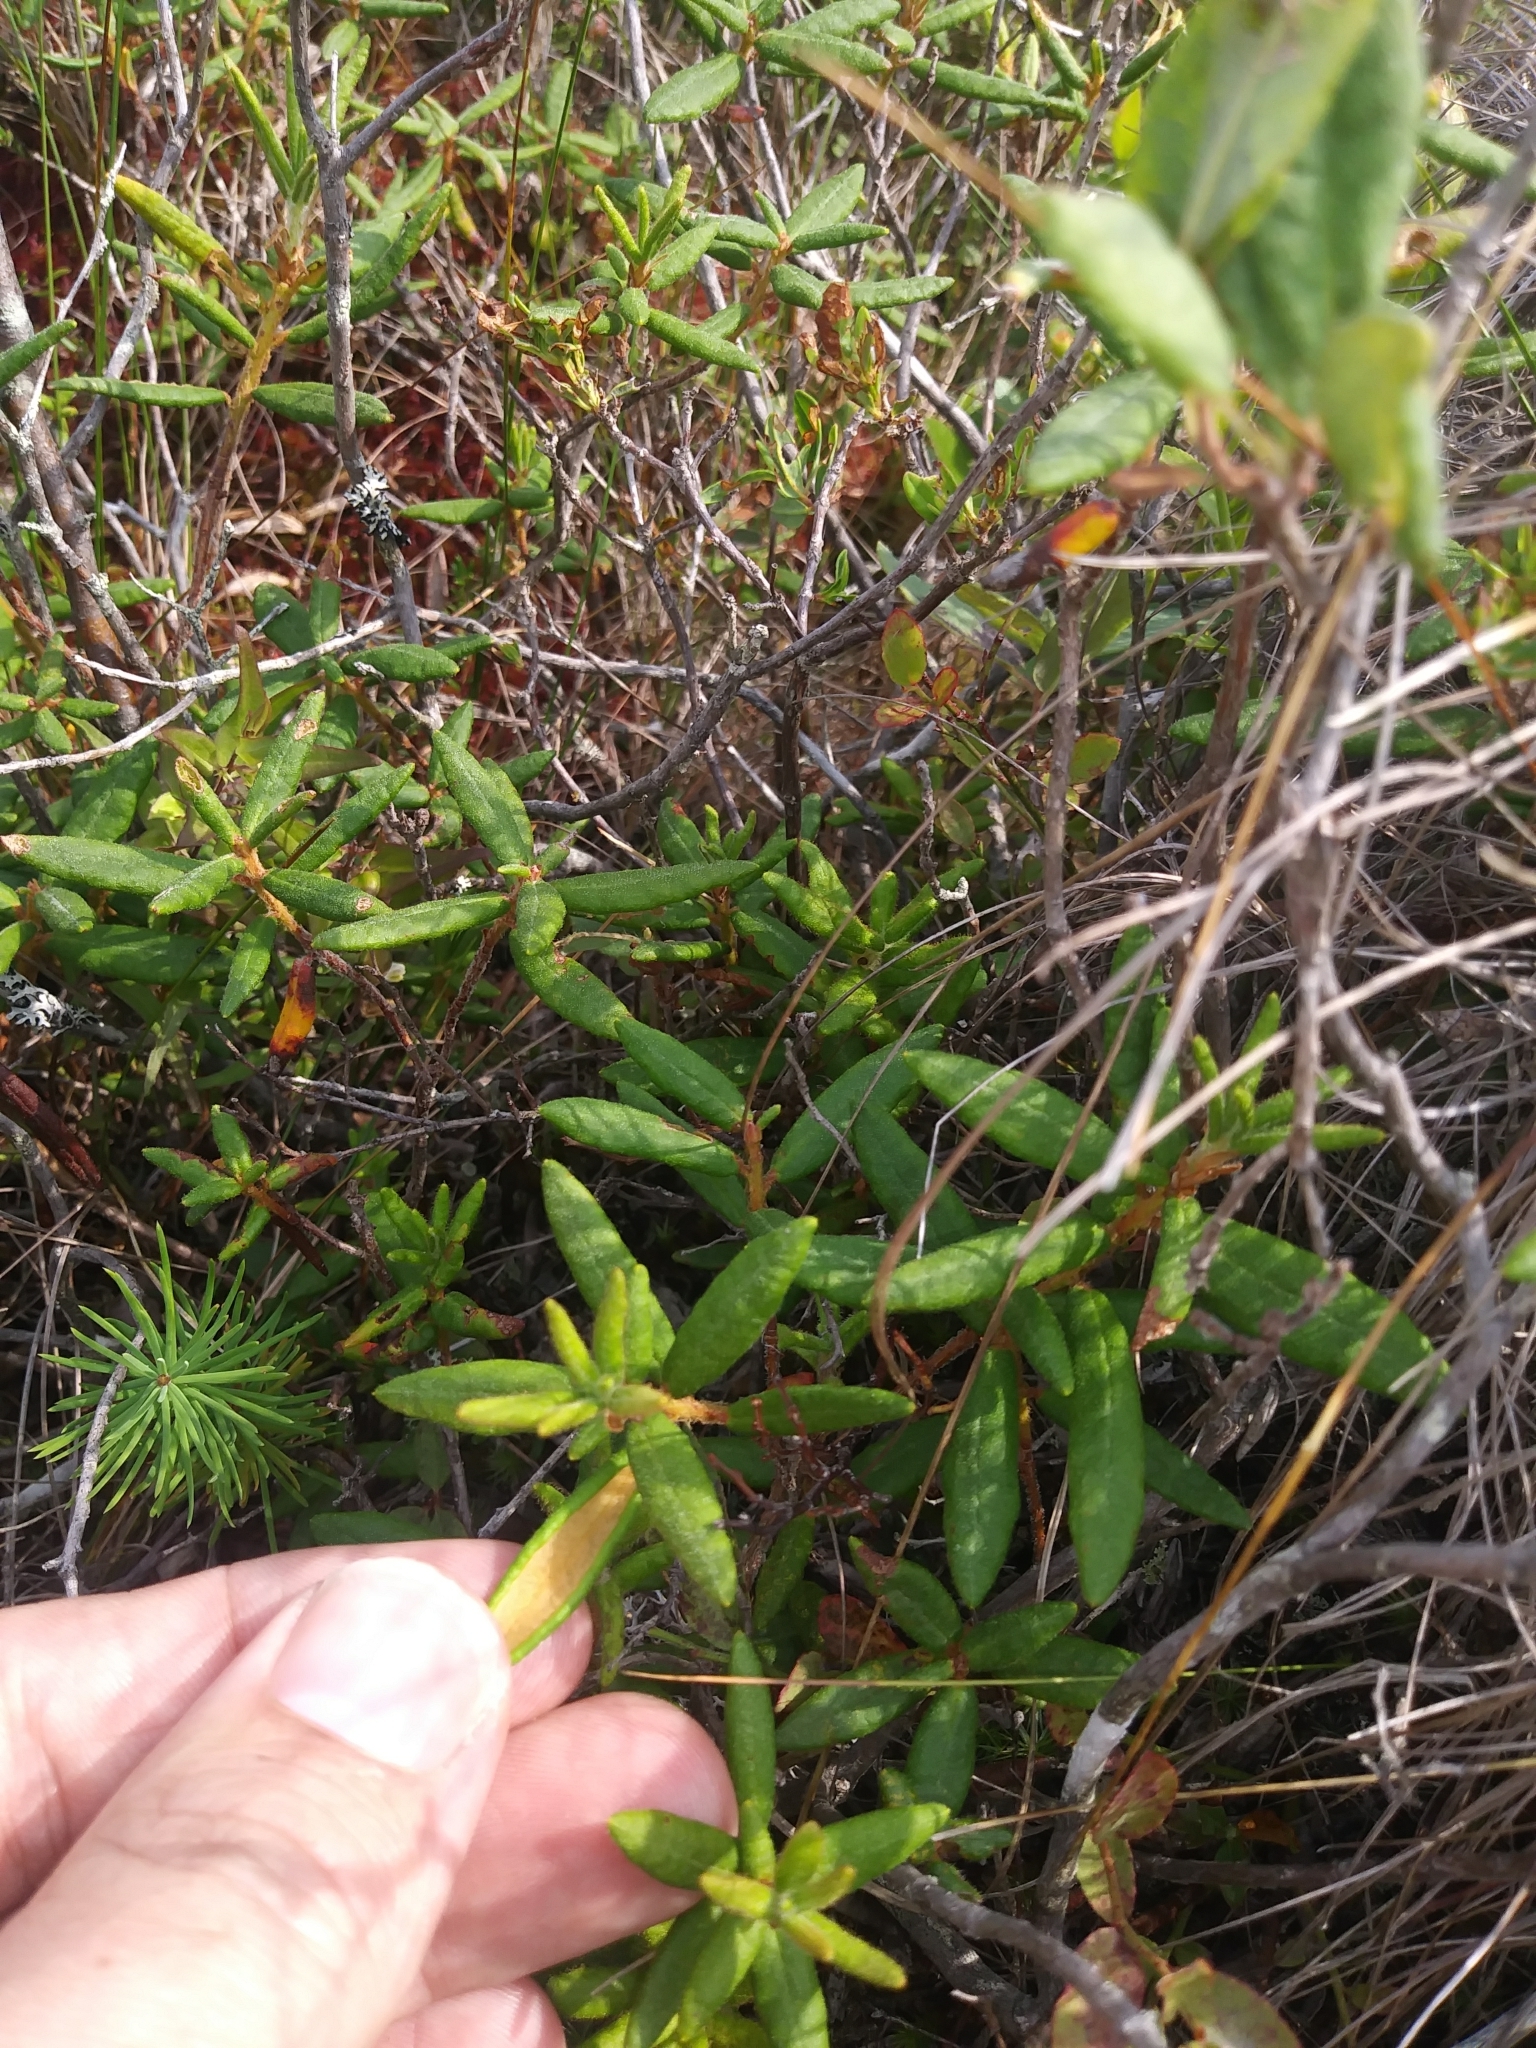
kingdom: Plantae
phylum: Tracheophyta
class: Magnoliopsida
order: Ericales
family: Ericaceae
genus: Rhododendron
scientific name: Rhododendron groenlandicum
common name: Bog labrador tea
